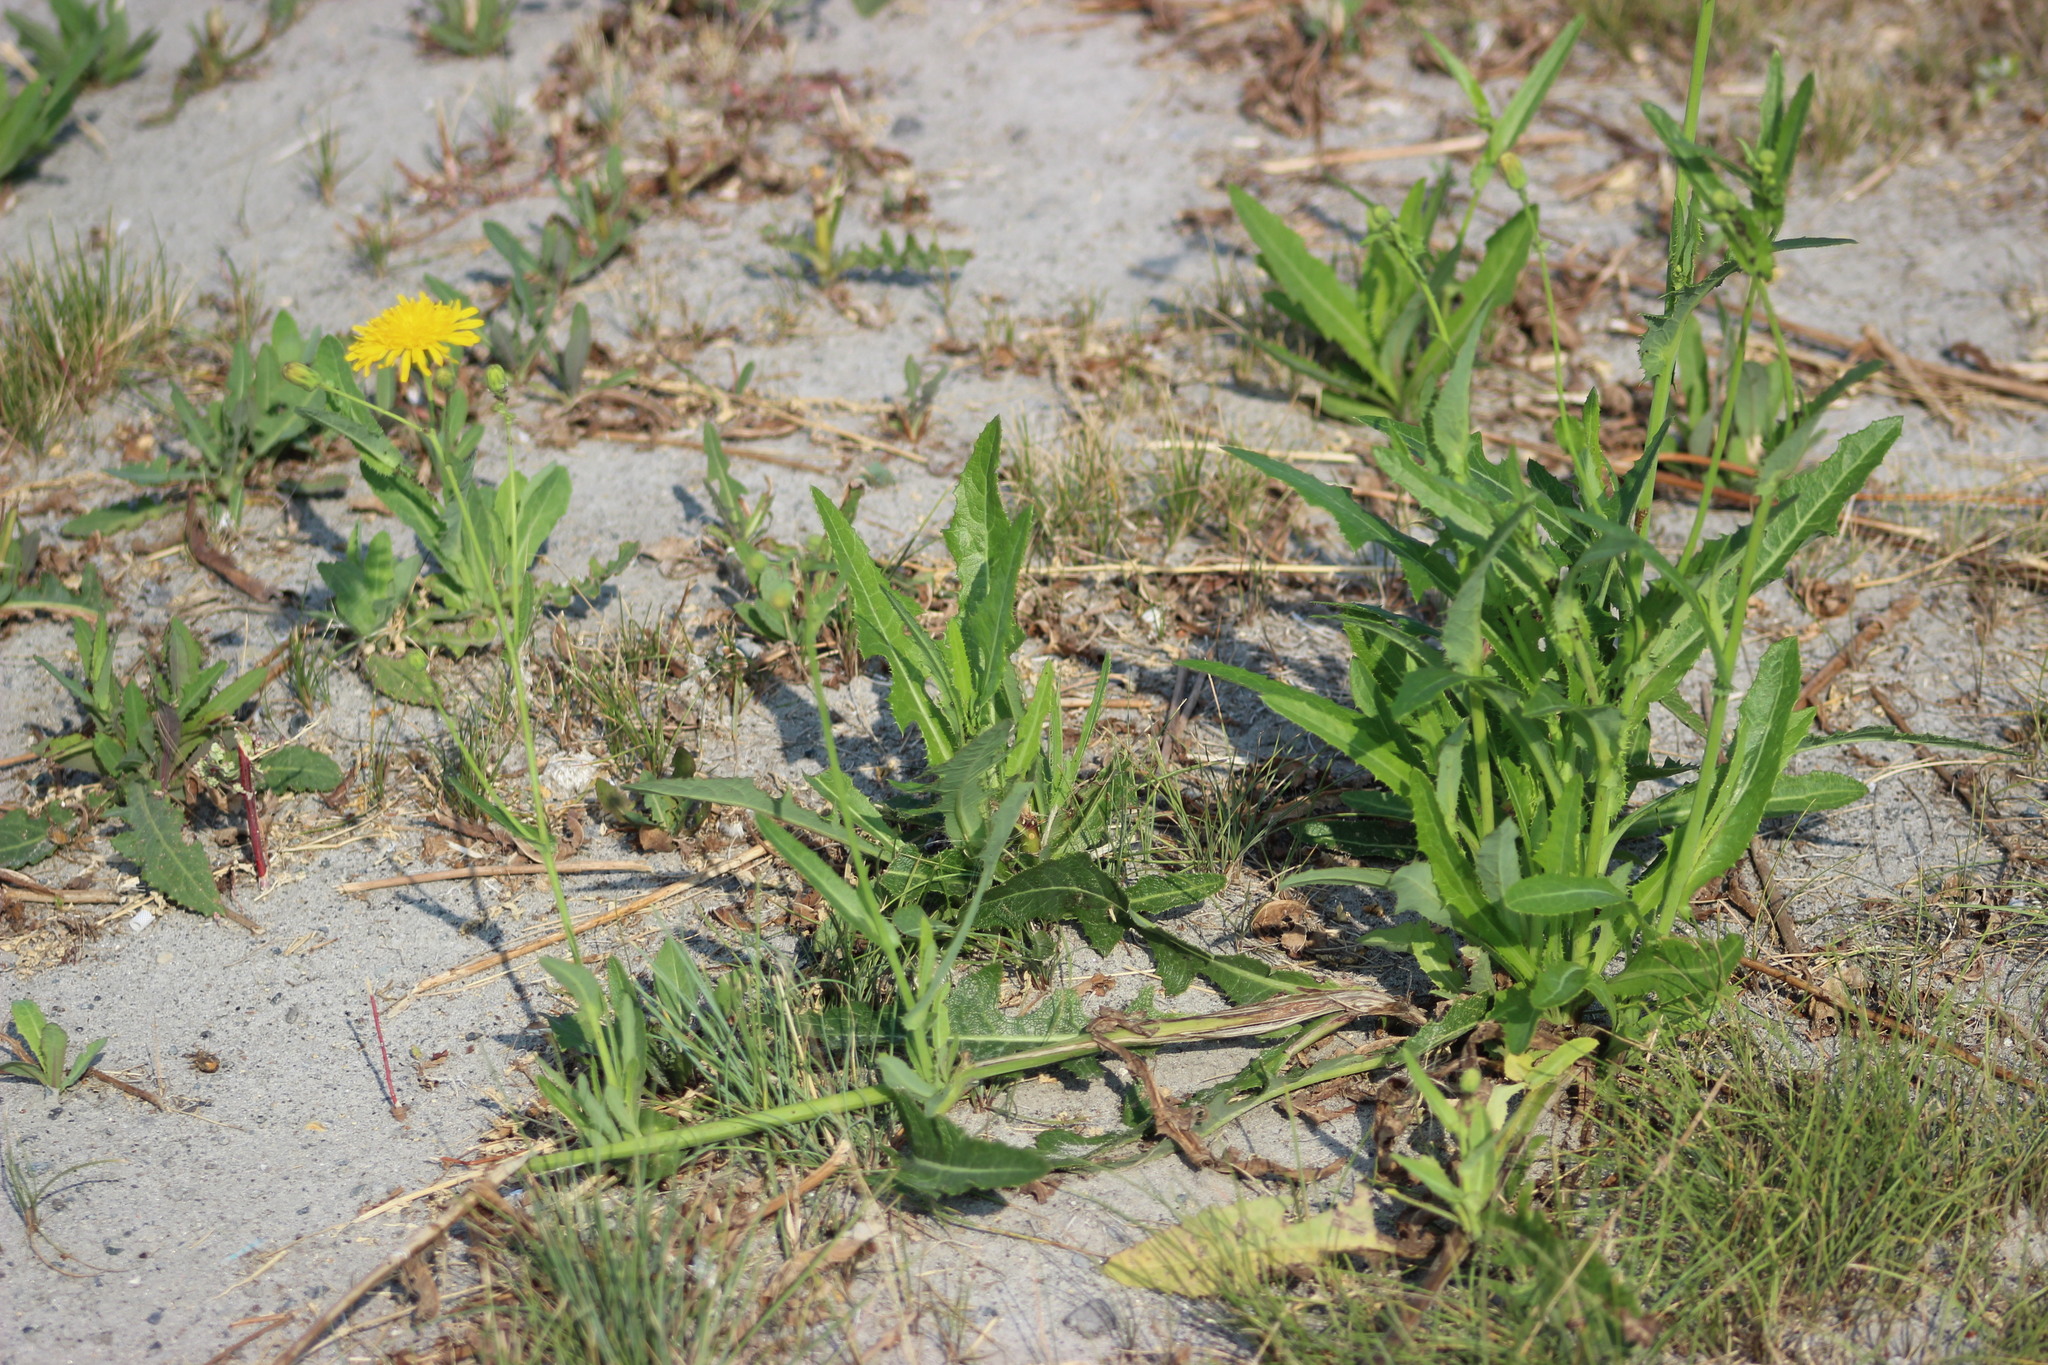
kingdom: Plantae
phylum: Tracheophyta
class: Magnoliopsida
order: Asterales
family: Asteraceae
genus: Sonchus
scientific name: Sonchus arvensis
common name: Perennial sow-thistle
